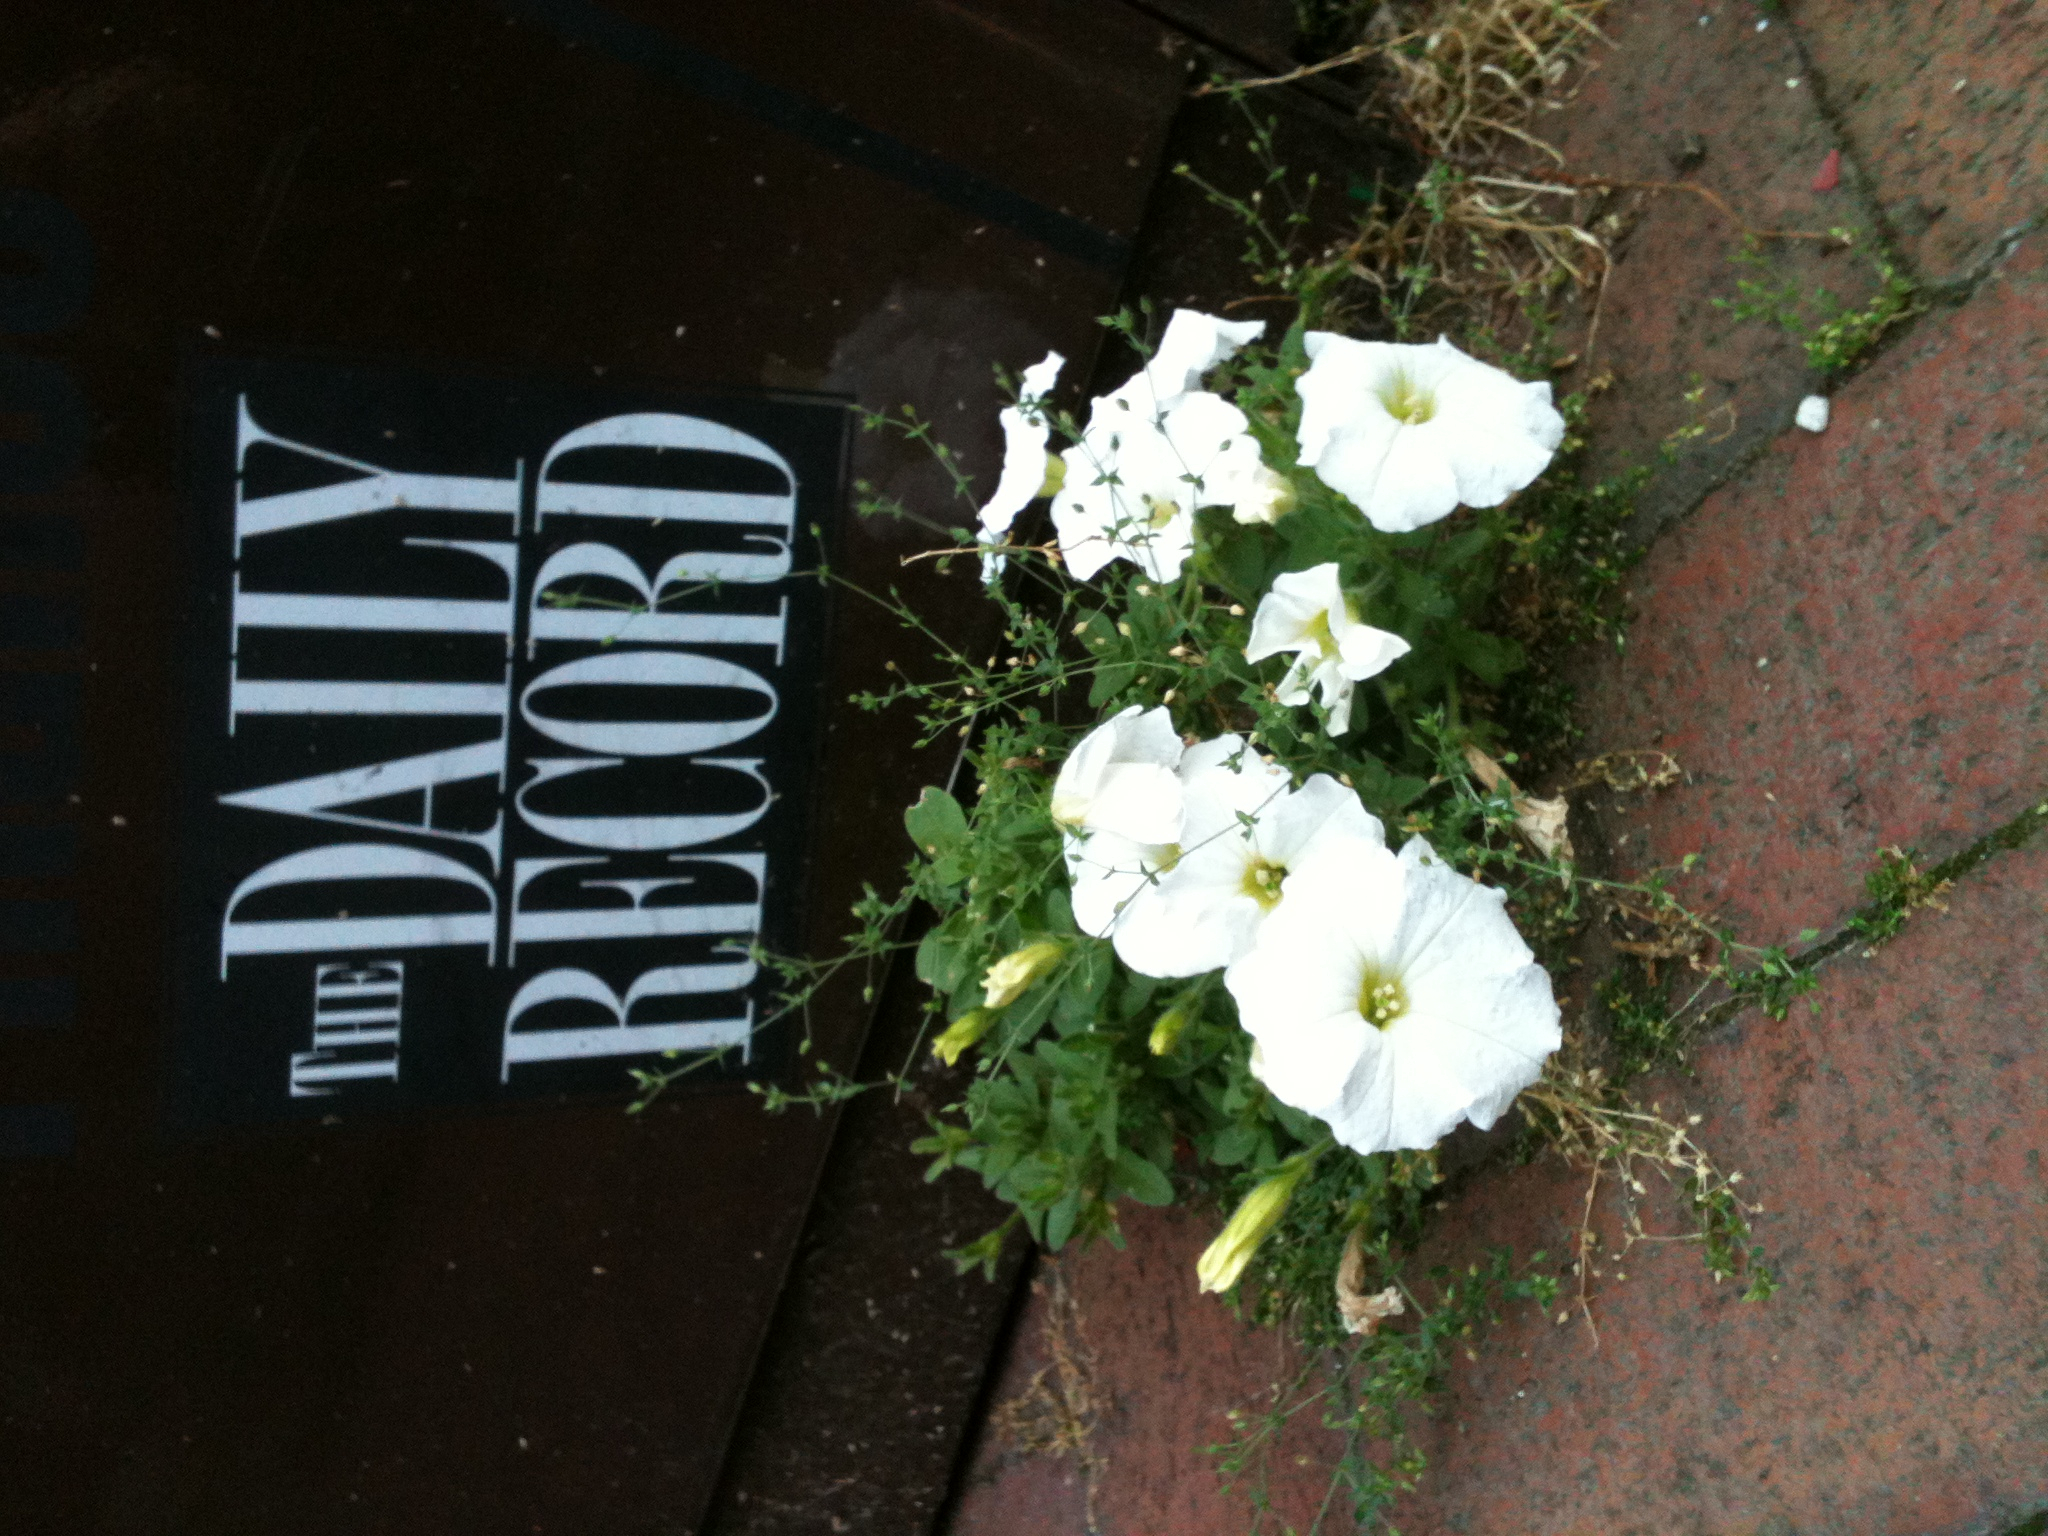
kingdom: Plantae
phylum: Tracheophyta
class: Magnoliopsida
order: Solanales
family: Solanaceae
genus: Petunia
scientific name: Petunia atkinsiana
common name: Petunia
